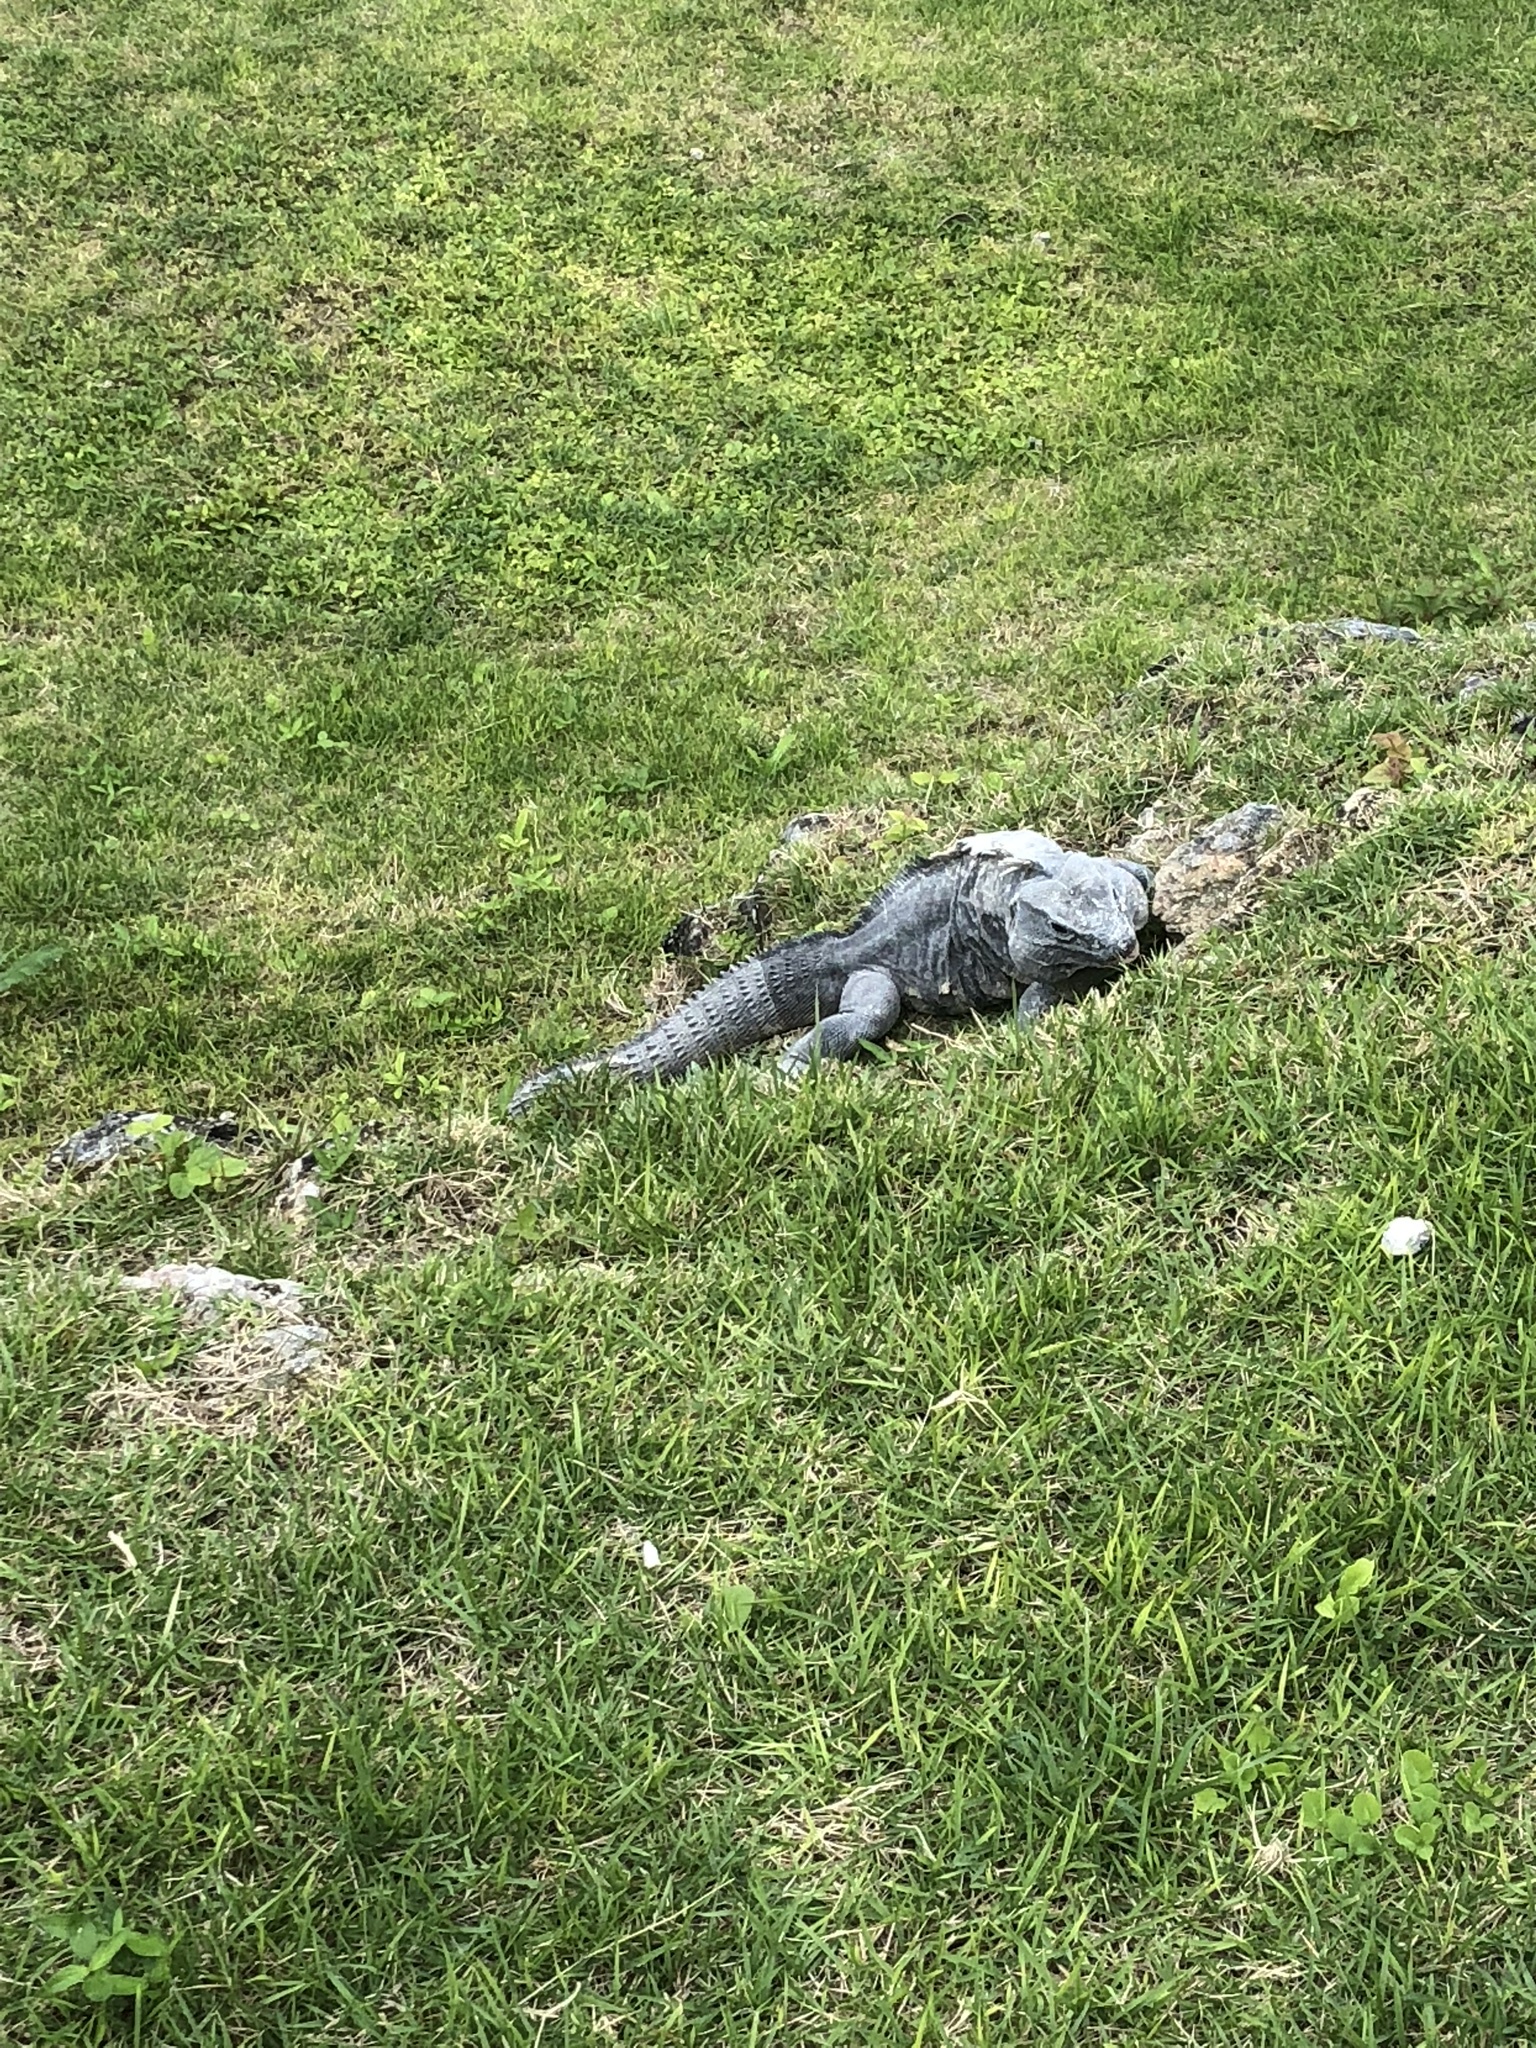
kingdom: Animalia
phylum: Chordata
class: Squamata
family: Iguanidae
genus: Ctenosaura
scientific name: Ctenosaura similis
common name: Black spiny-tailed iguana
